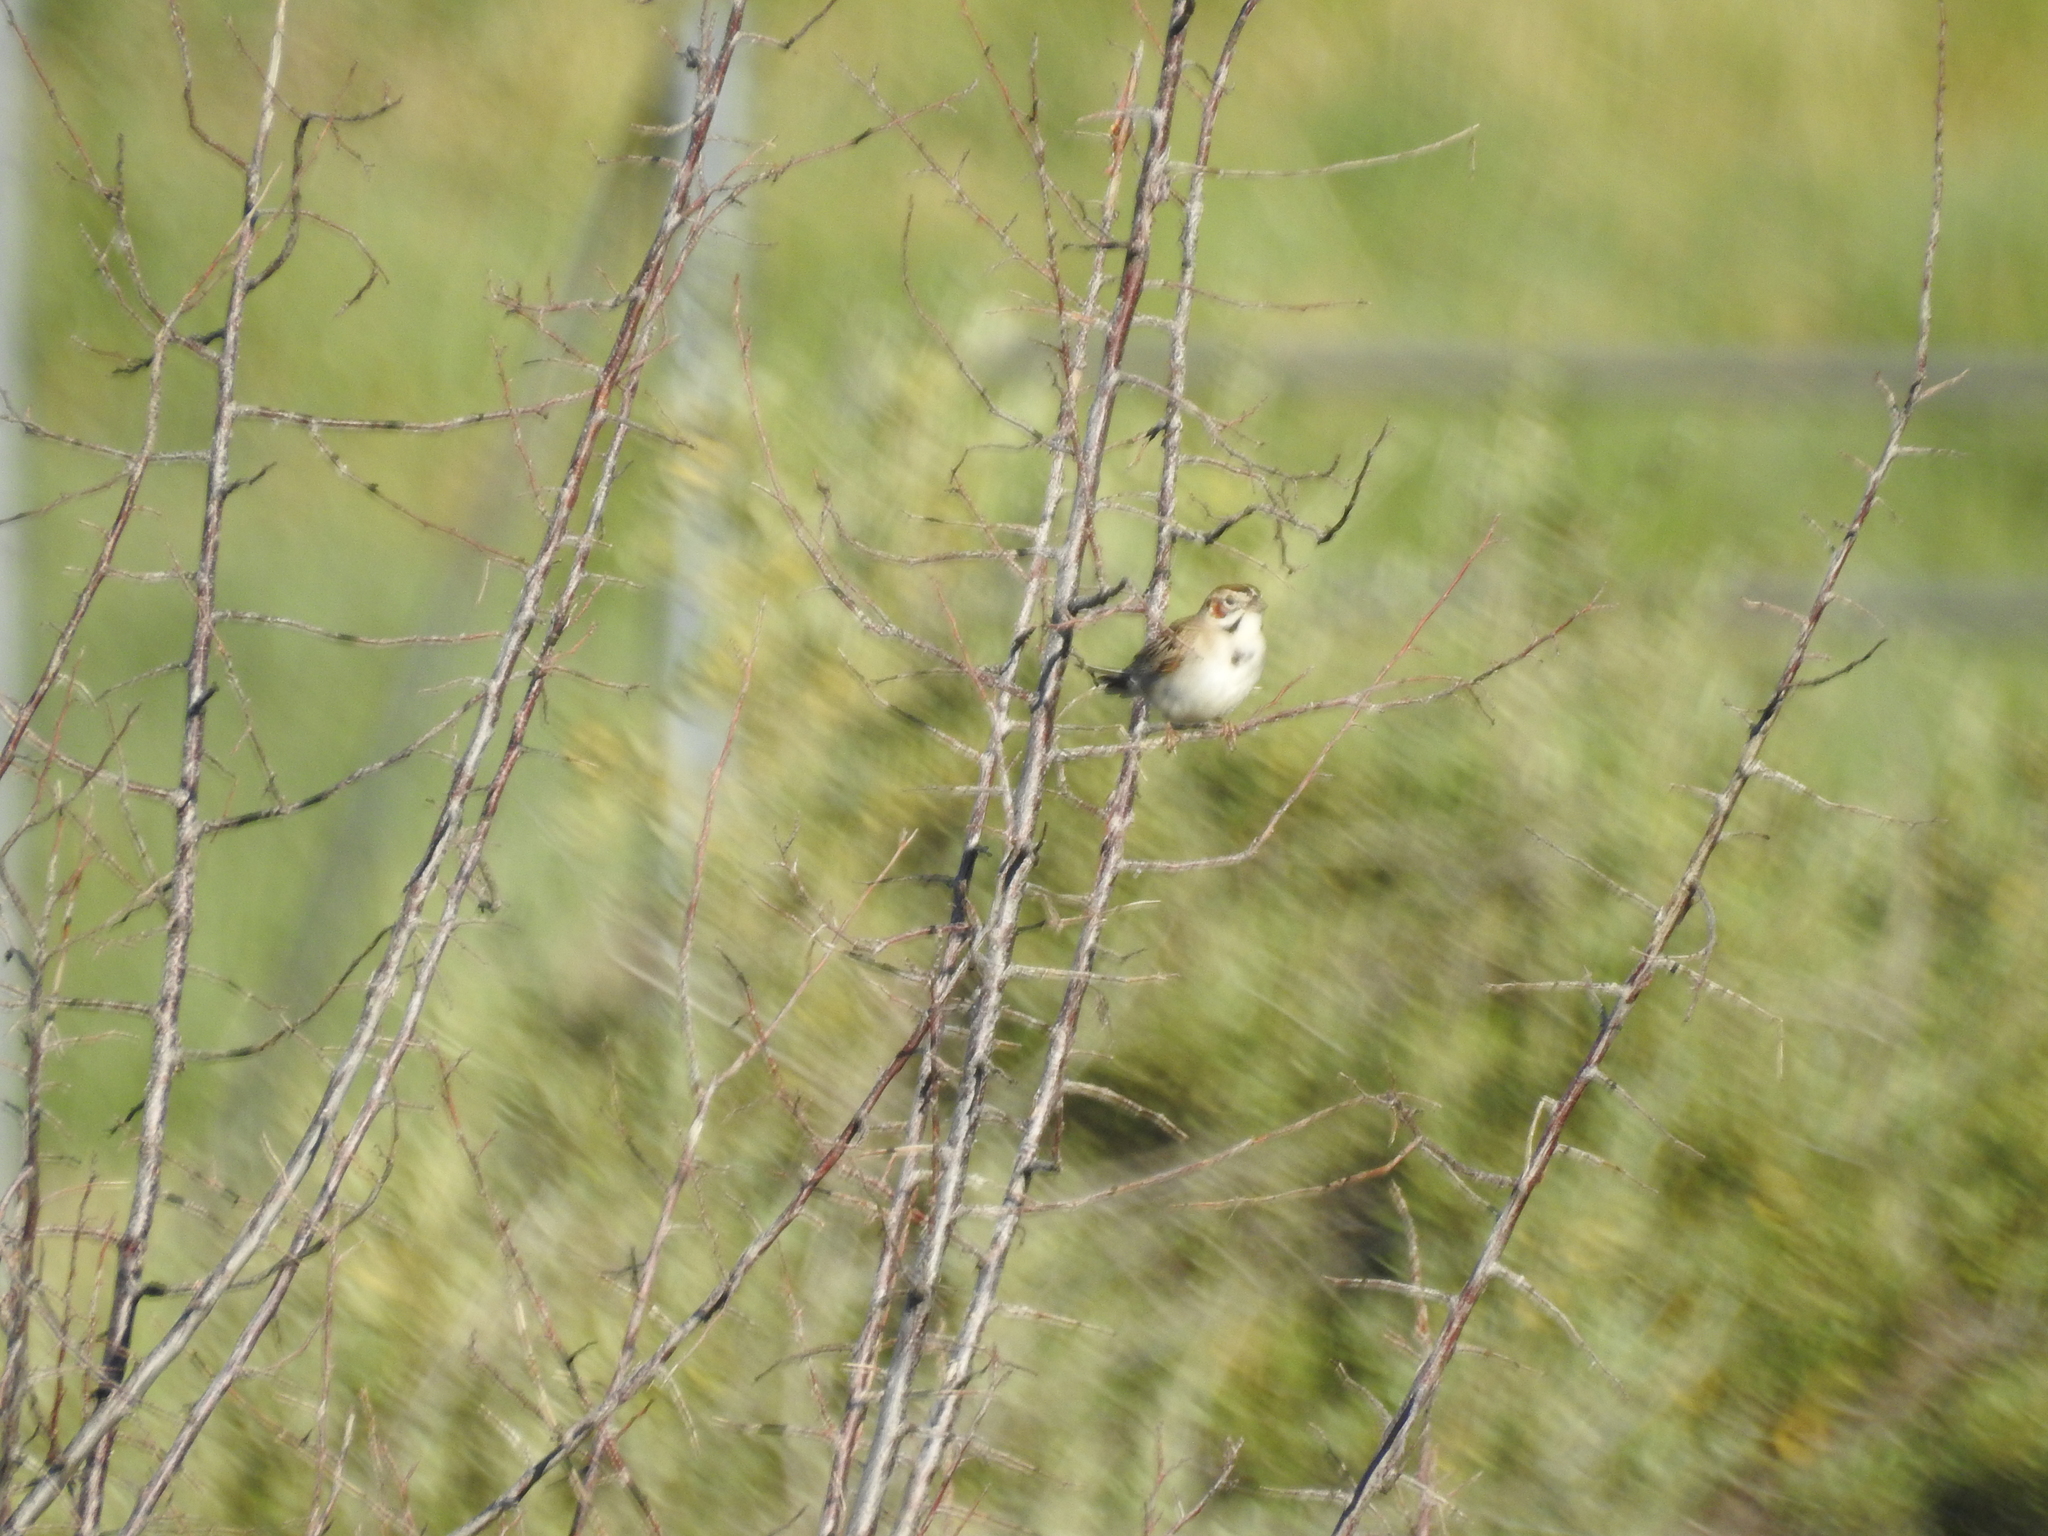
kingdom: Animalia
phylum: Chordata
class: Aves
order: Passeriformes
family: Passerellidae
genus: Chondestes
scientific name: Chondestes grammacus
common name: Lark sparrow
